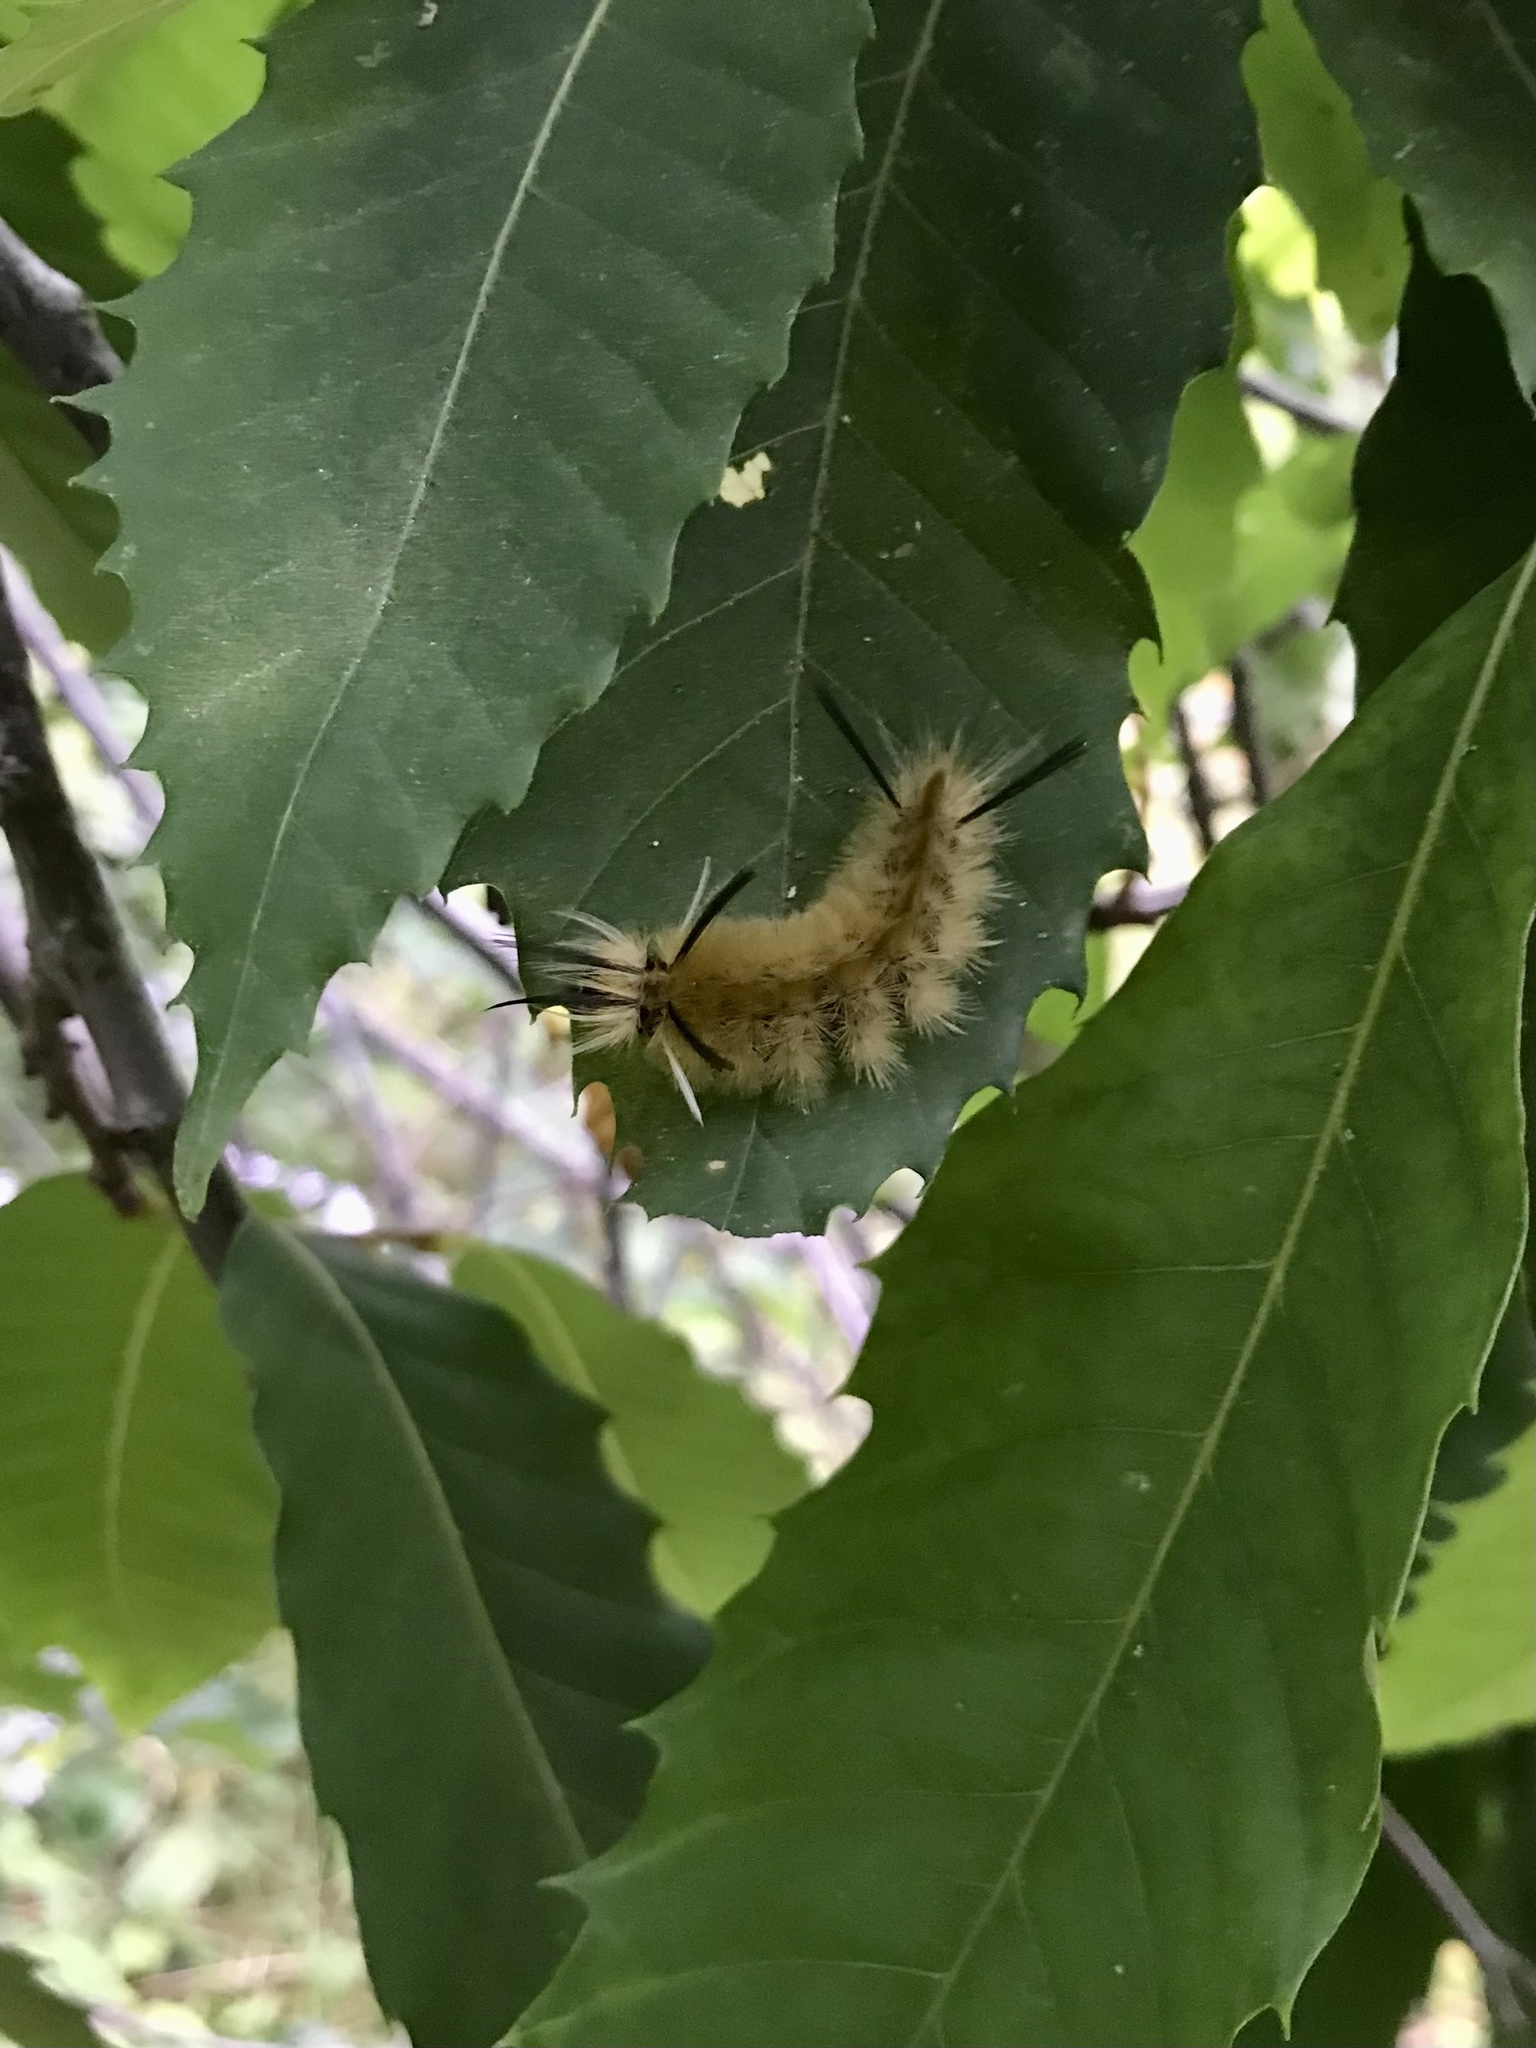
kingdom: Animalia
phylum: Arthropoda
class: Insecta
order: Lepidoptera
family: Erebidae
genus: Halysidota
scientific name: Halysidota tessellaris
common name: Banded tussock moth
